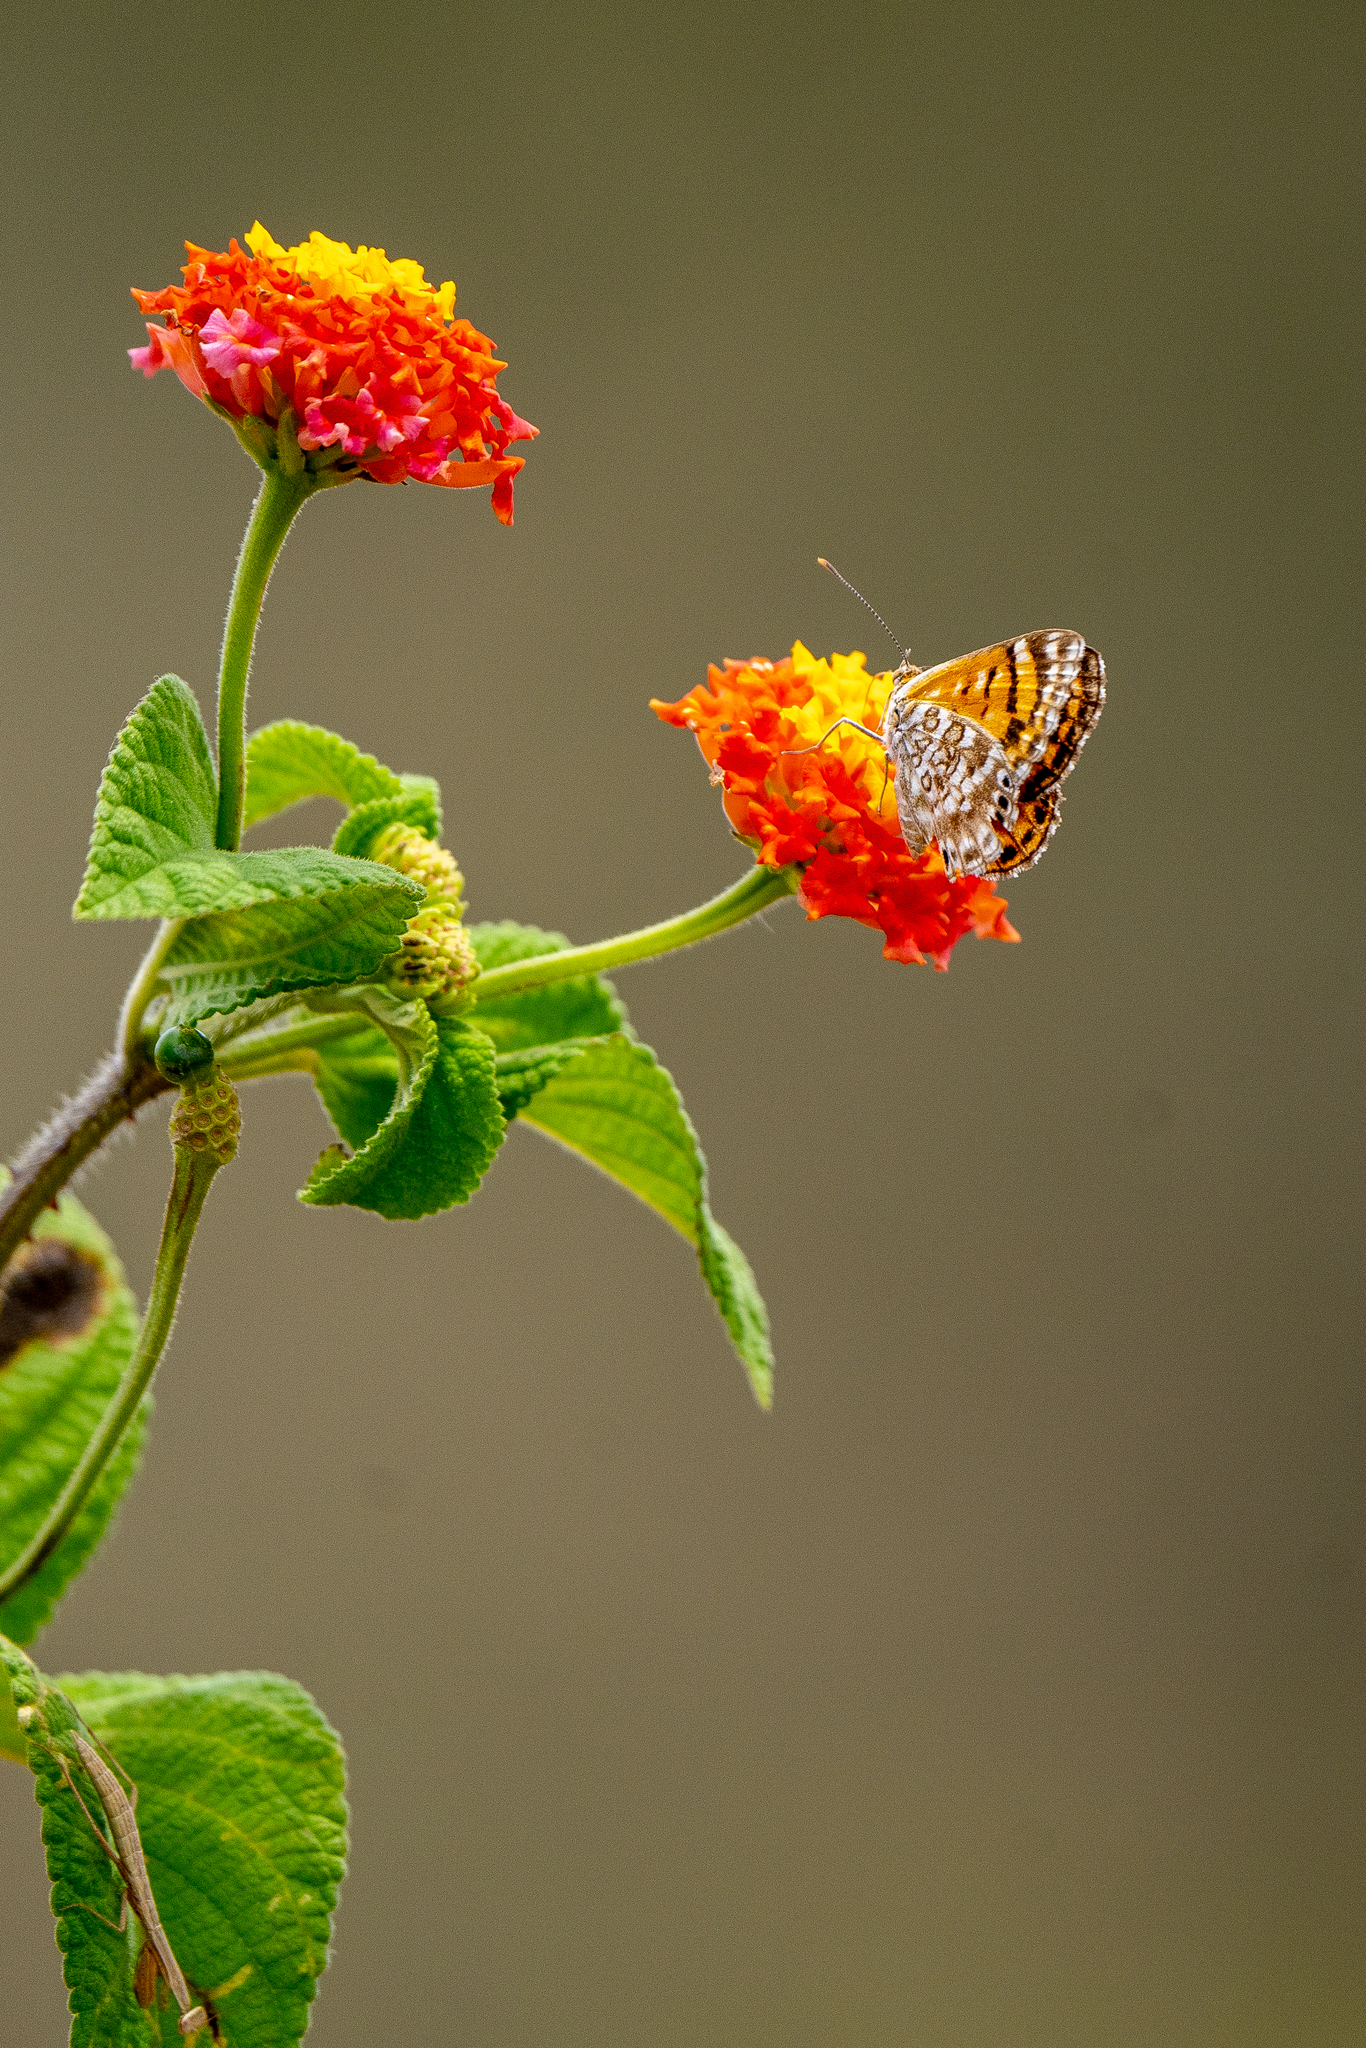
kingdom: Animalia
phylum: Arthropoda
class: Insecta
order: Lepidoptera
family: Lycaenidae
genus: Aricoris
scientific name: Aricoris erostratus
